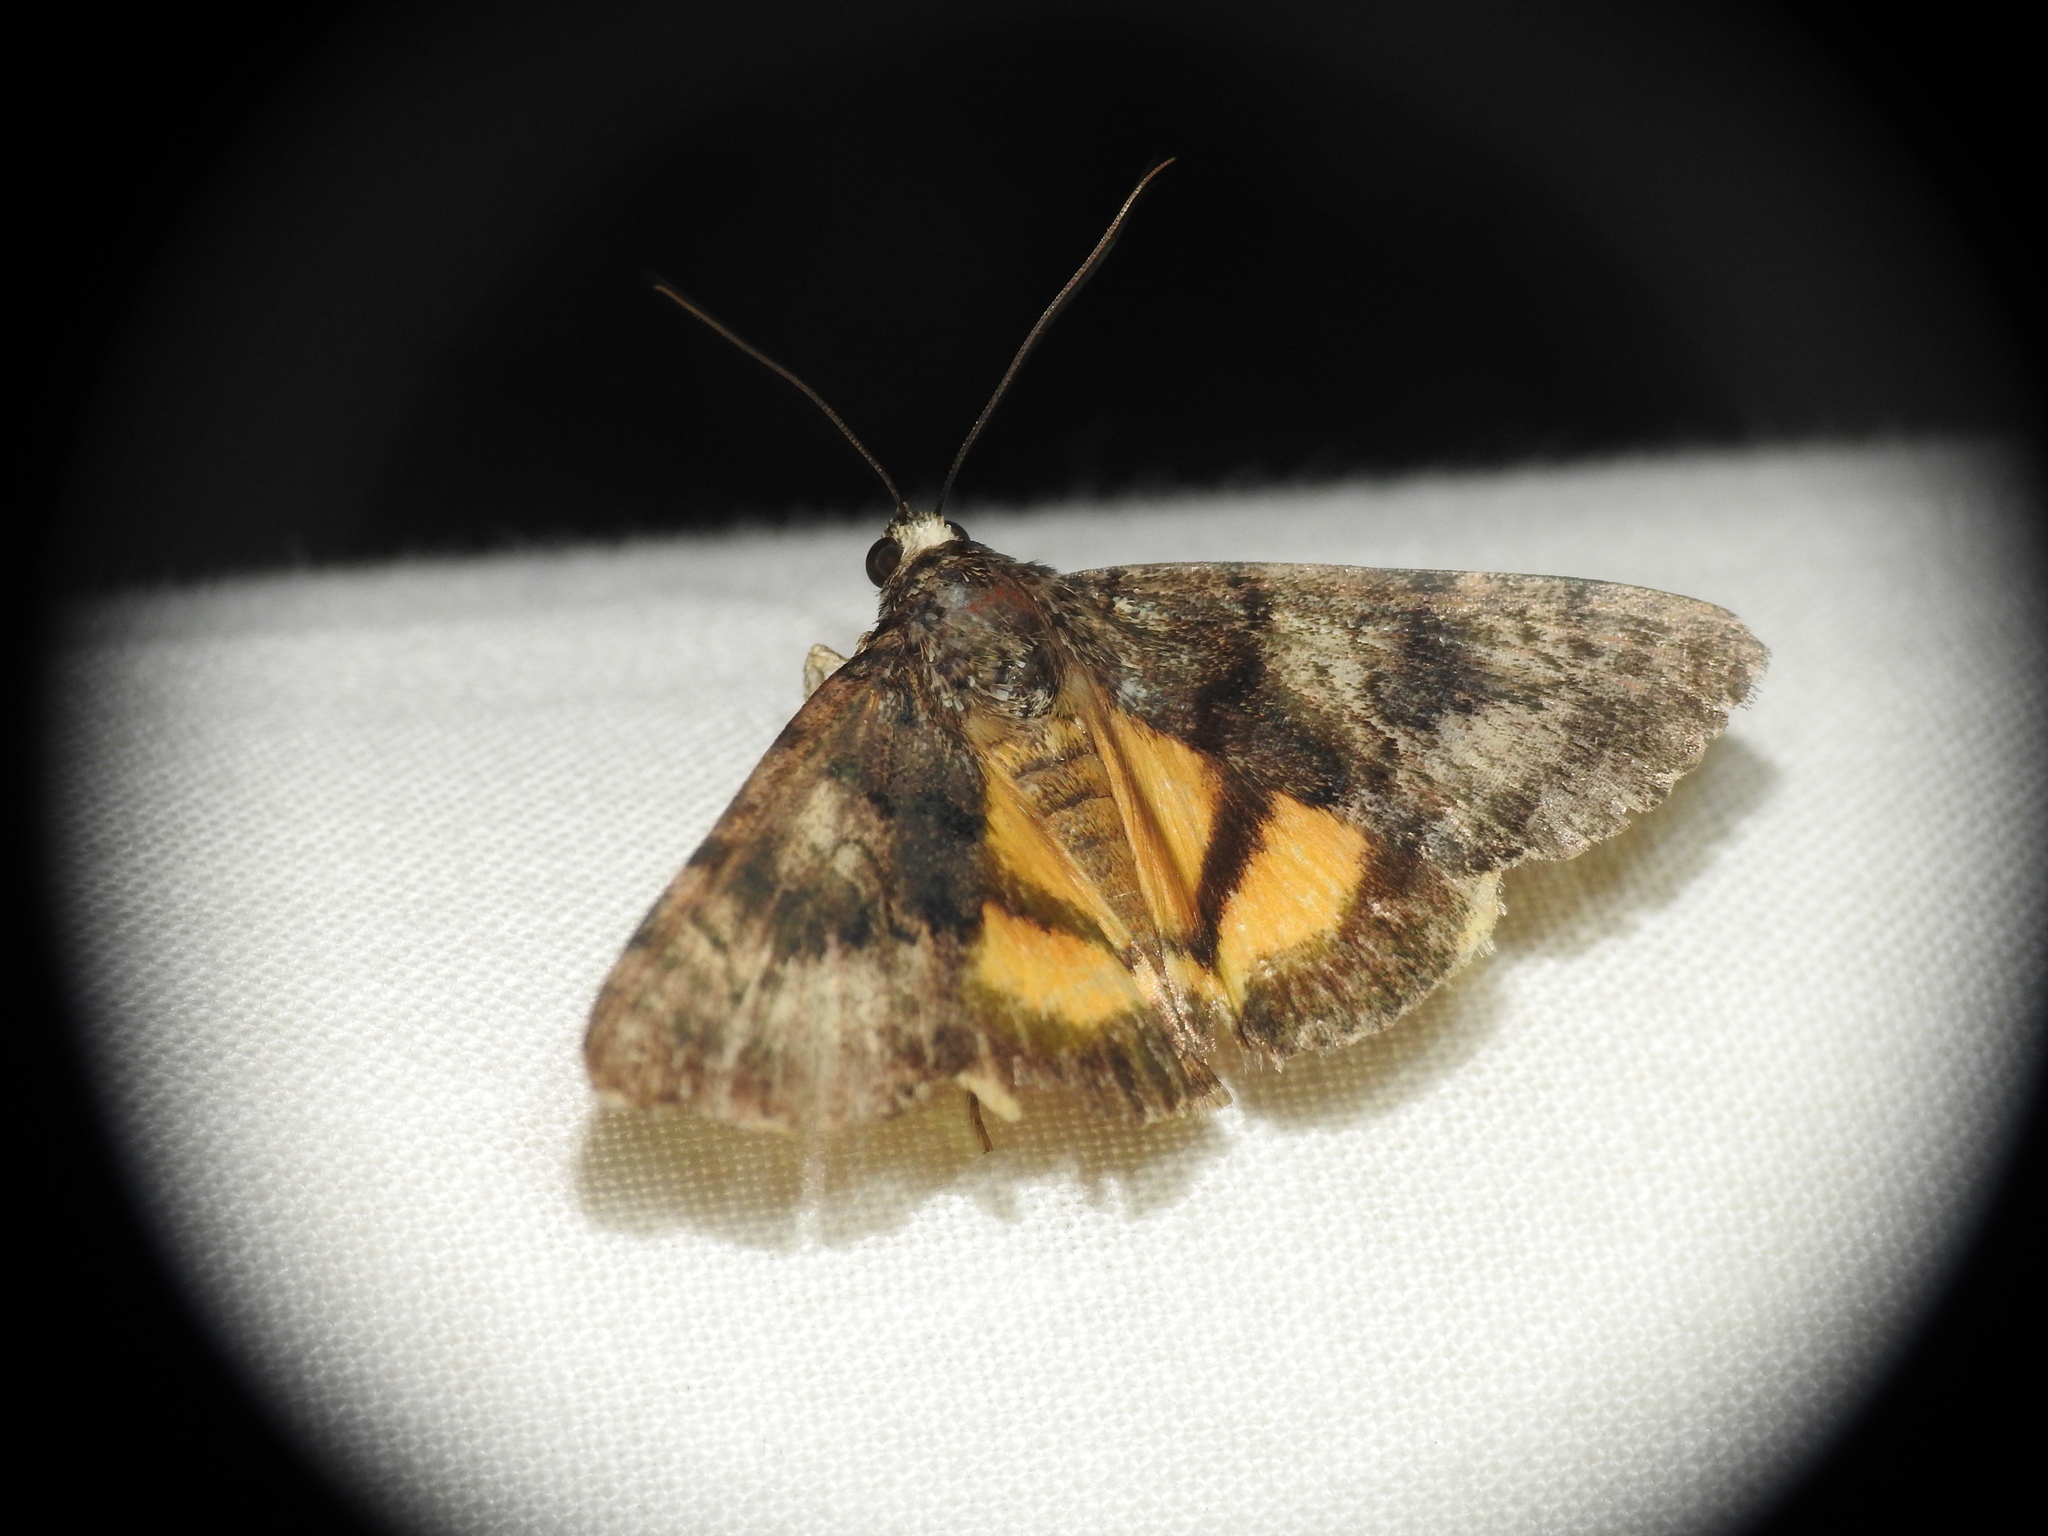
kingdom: Animalia
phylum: Arthropoda
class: Insecta
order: Lepidoptera
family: Erebidae
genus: Catocala
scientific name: Catocala nymphagoga
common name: Oak yellow underwing
